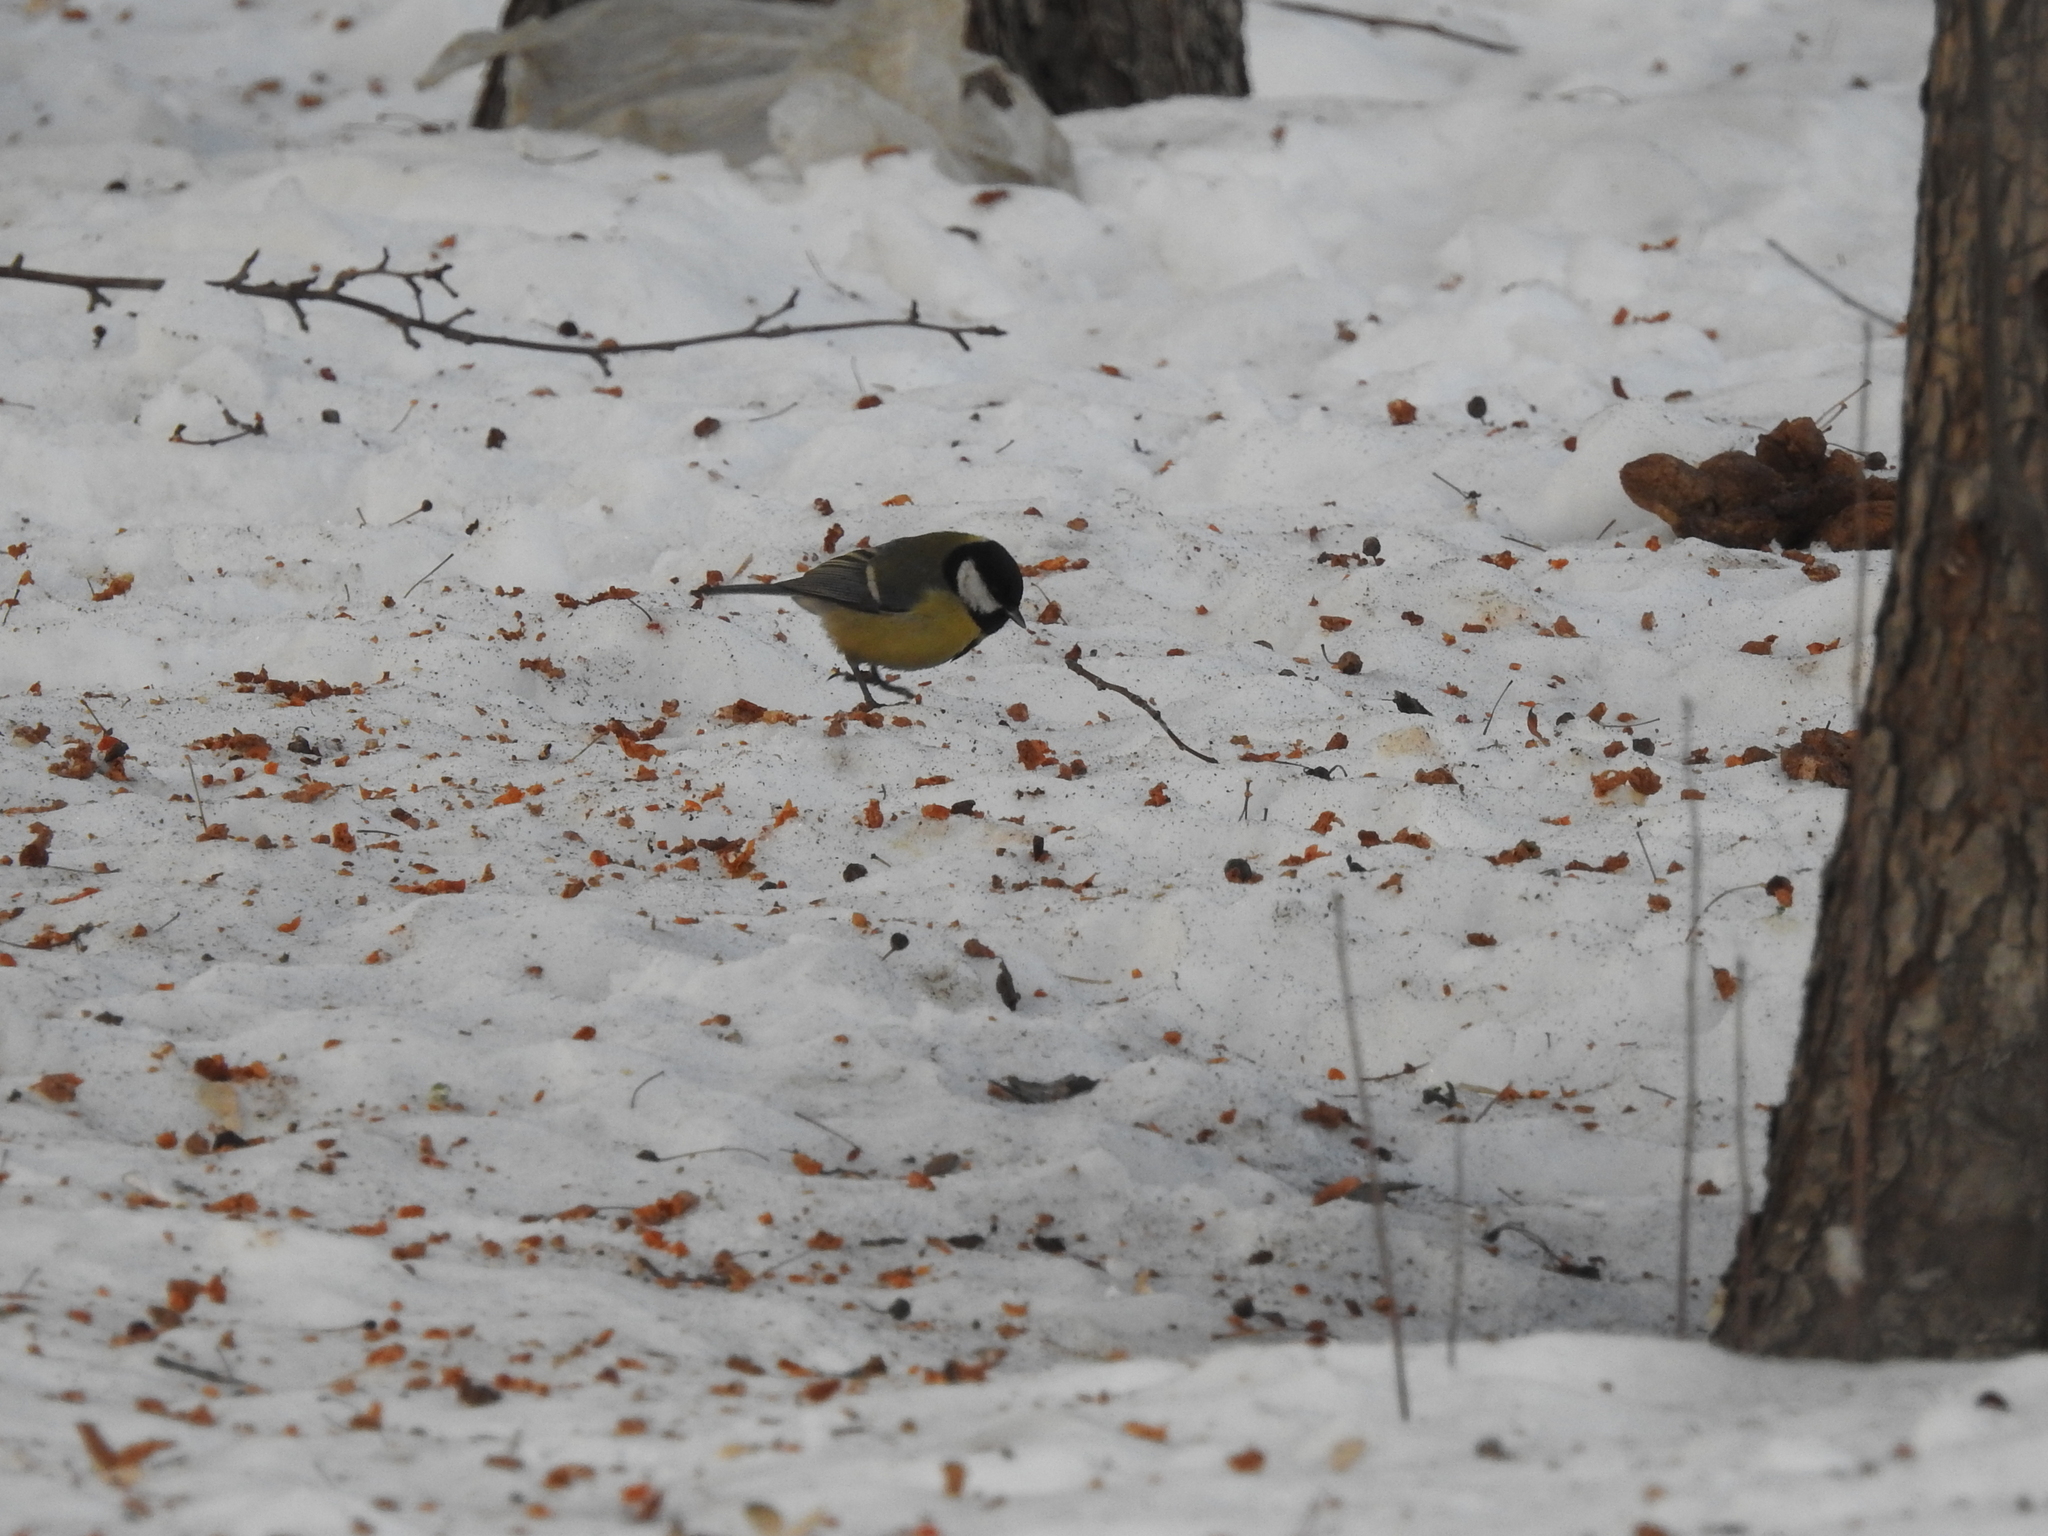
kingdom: Animalia
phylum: Chordata
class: Aves
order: Passeriformes
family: Paridae
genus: Parus
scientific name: Parus major
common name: Great tit
